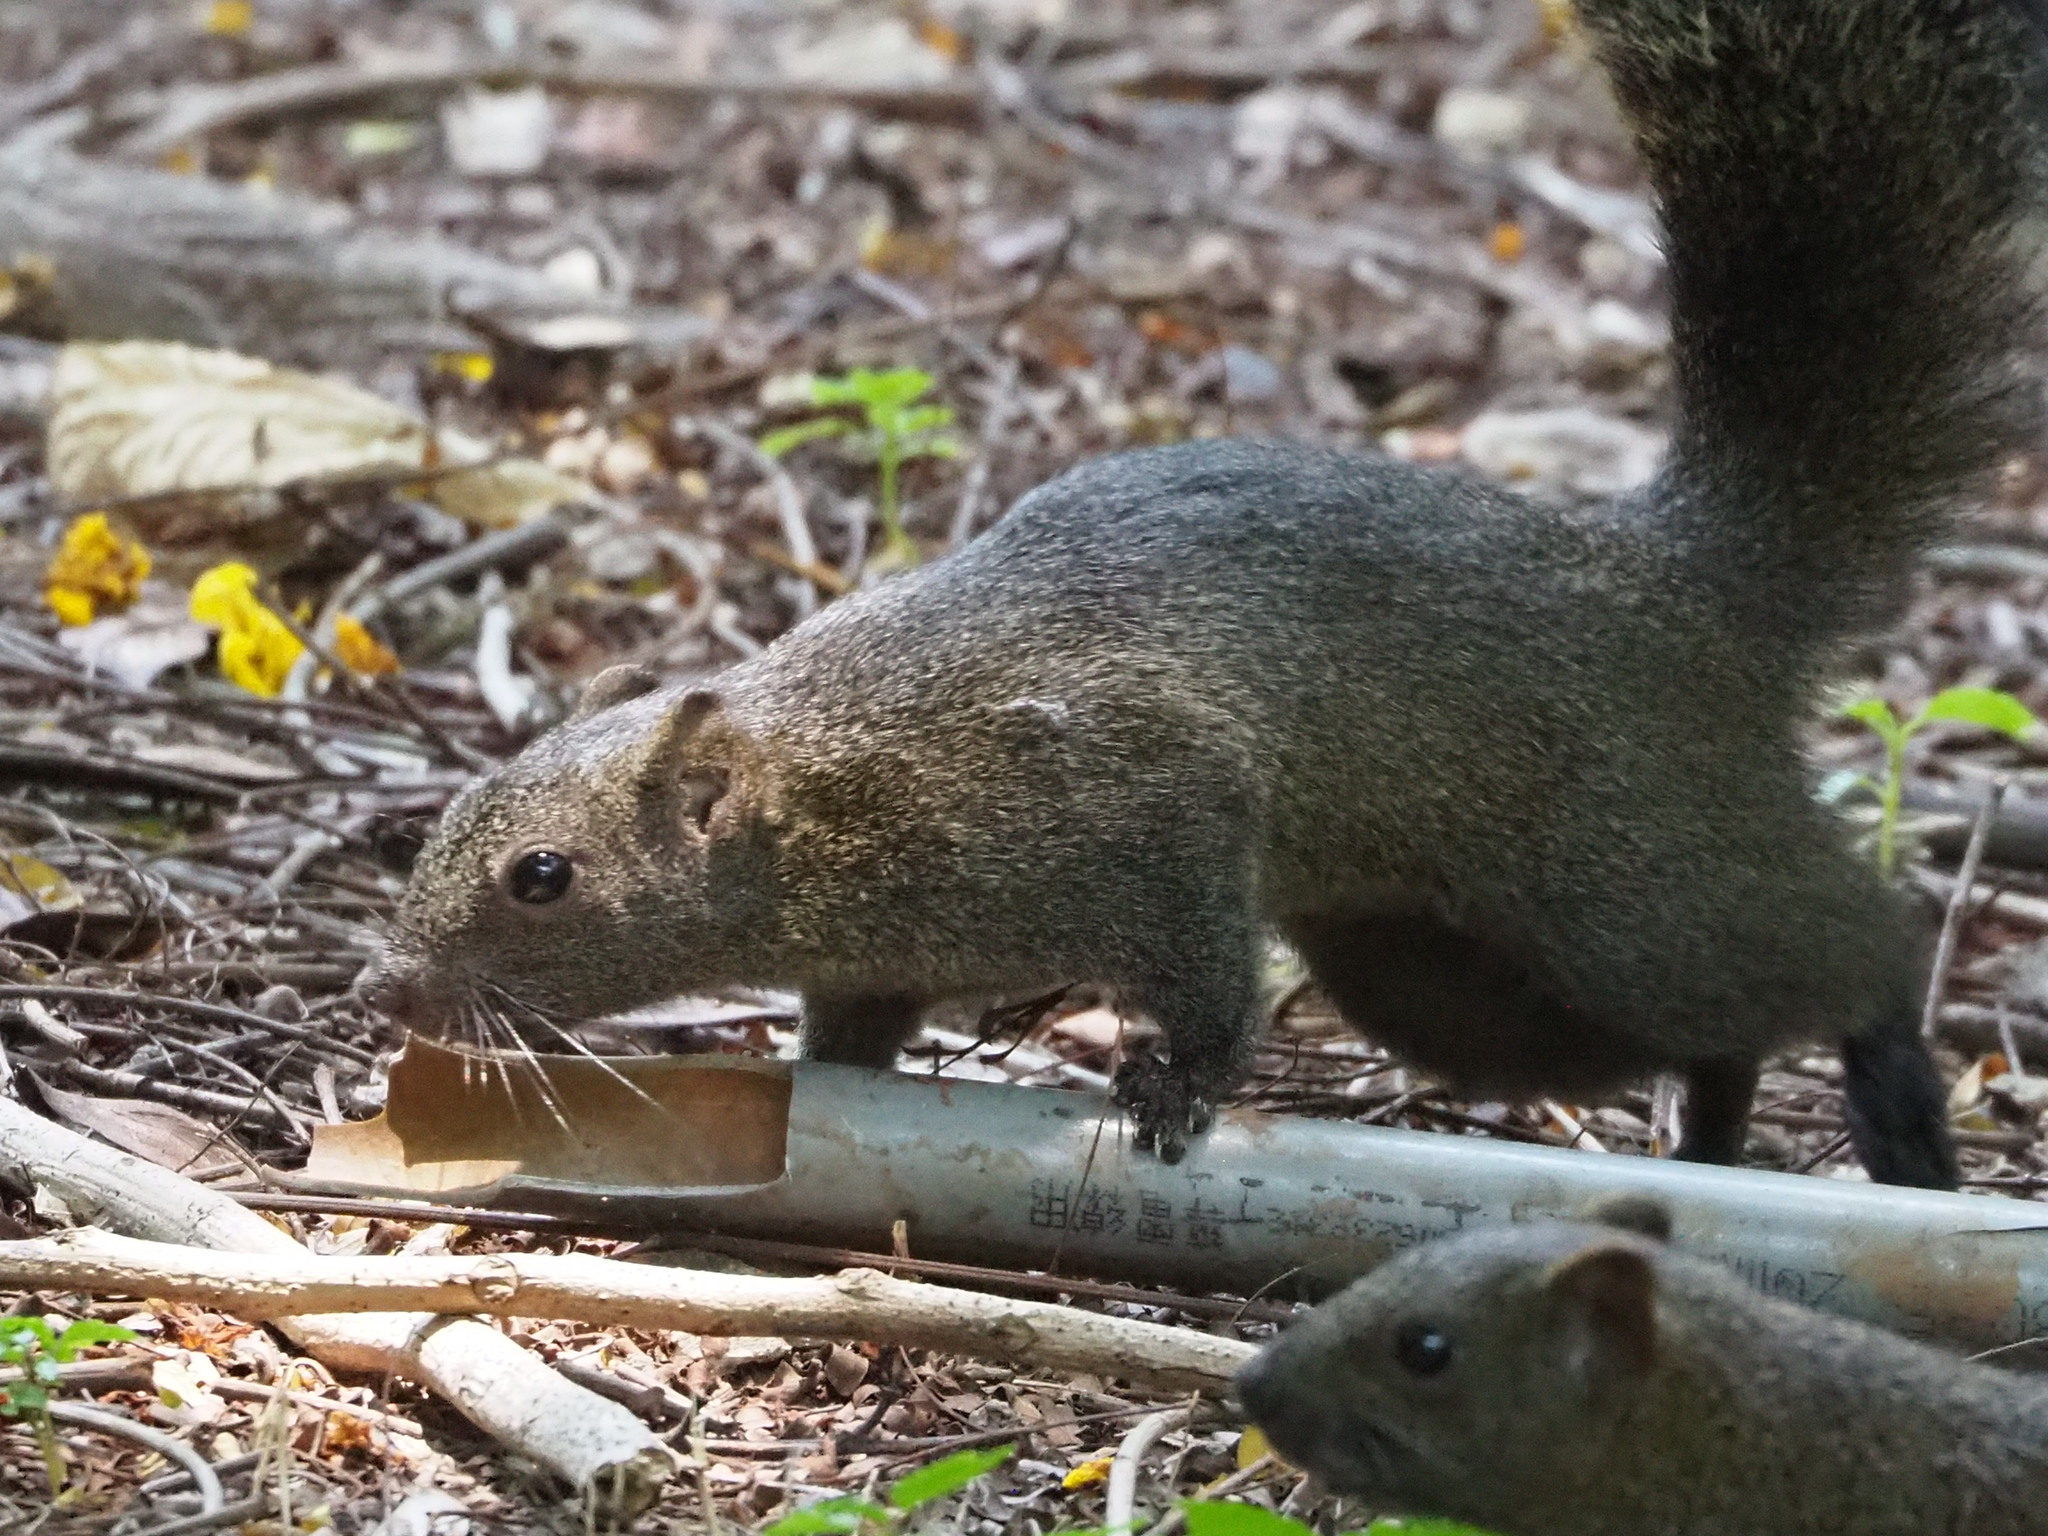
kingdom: Animalia
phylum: Chordata
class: Mammalia
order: Rodentia
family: Sciuridae
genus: Callosciurus
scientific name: Callosciurus erythraeus
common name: Pallas's squirrel
